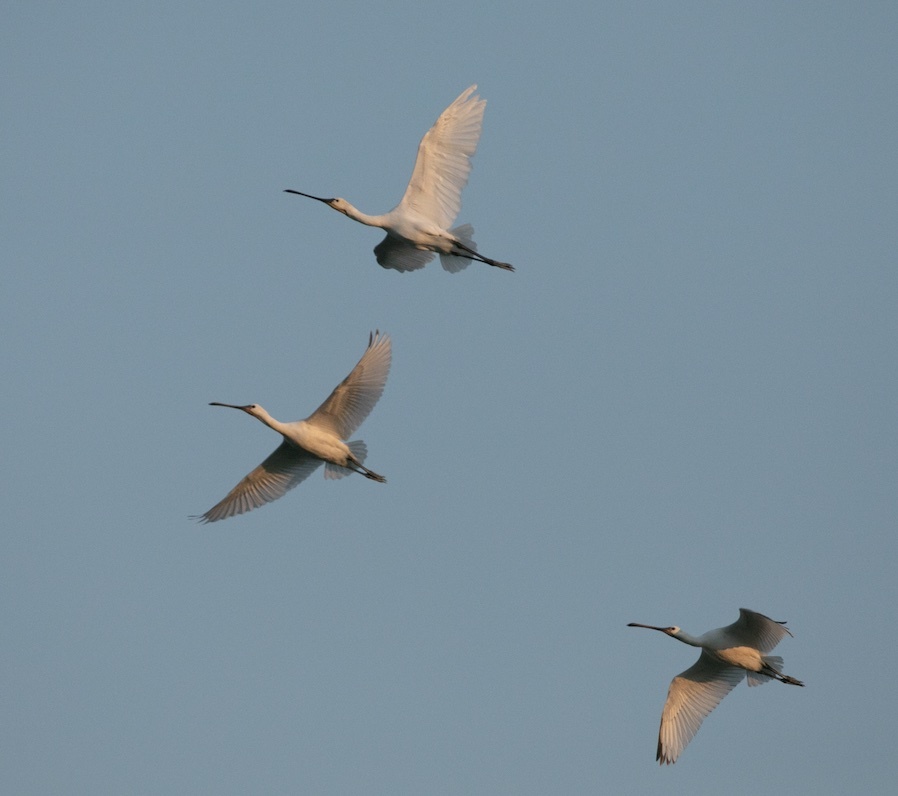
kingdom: Animalia
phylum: Chordata
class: Aves
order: Pelecaniformes
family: Threskiornithidae
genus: Platalea
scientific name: Platalea leucorodia
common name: Eurasian spoonbill
